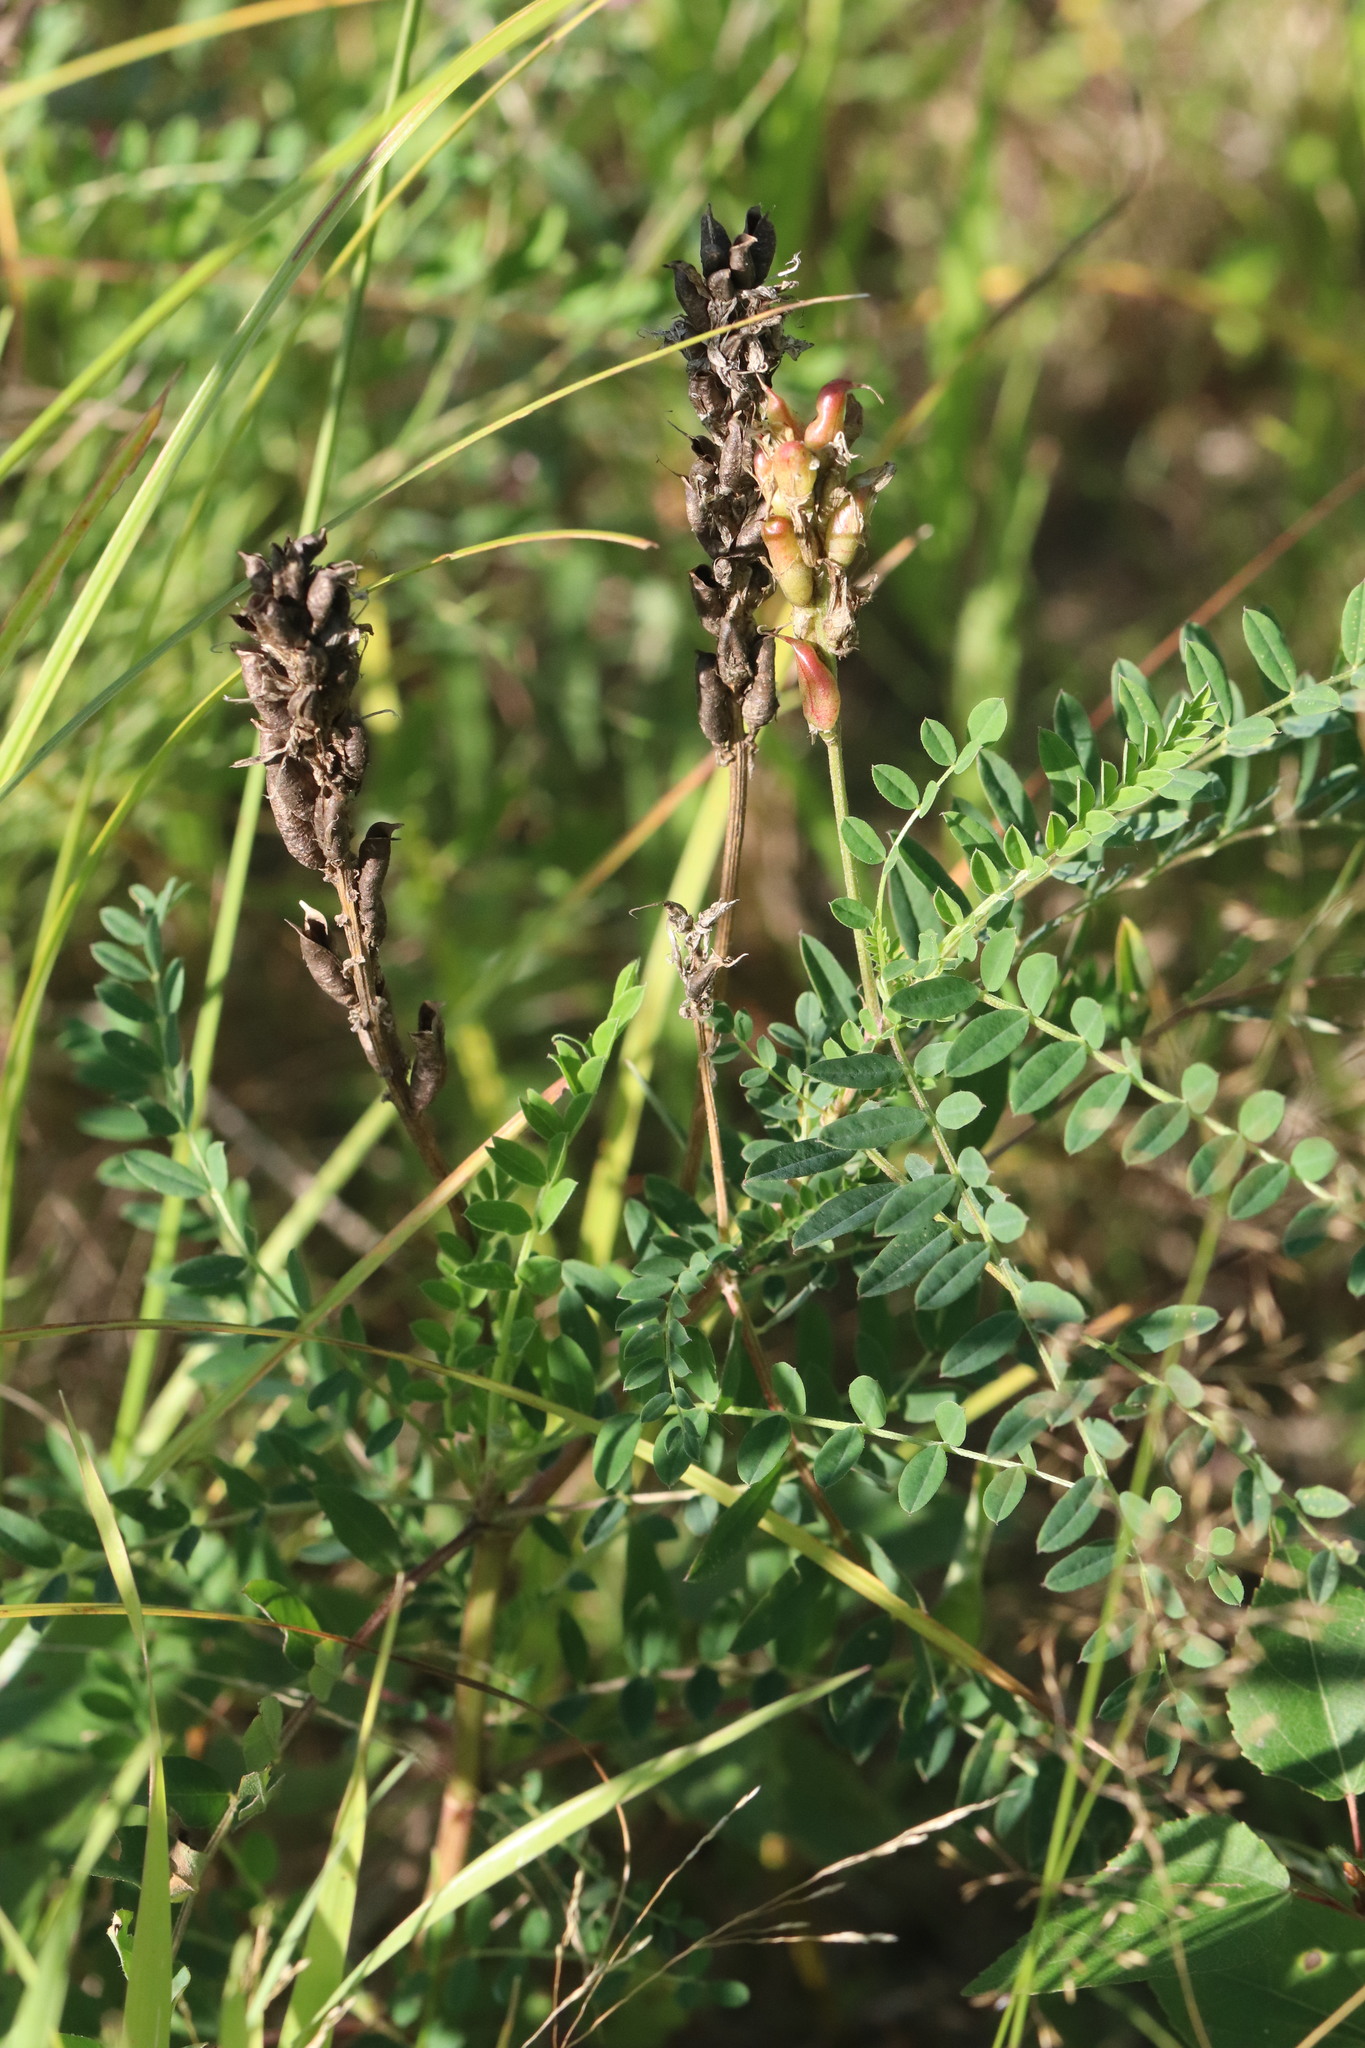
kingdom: Plantae
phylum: Tracheophyta
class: Magnoliopsida
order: Fabales
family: Fabaceae
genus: Astragalus
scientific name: Astragalus uliginosus
